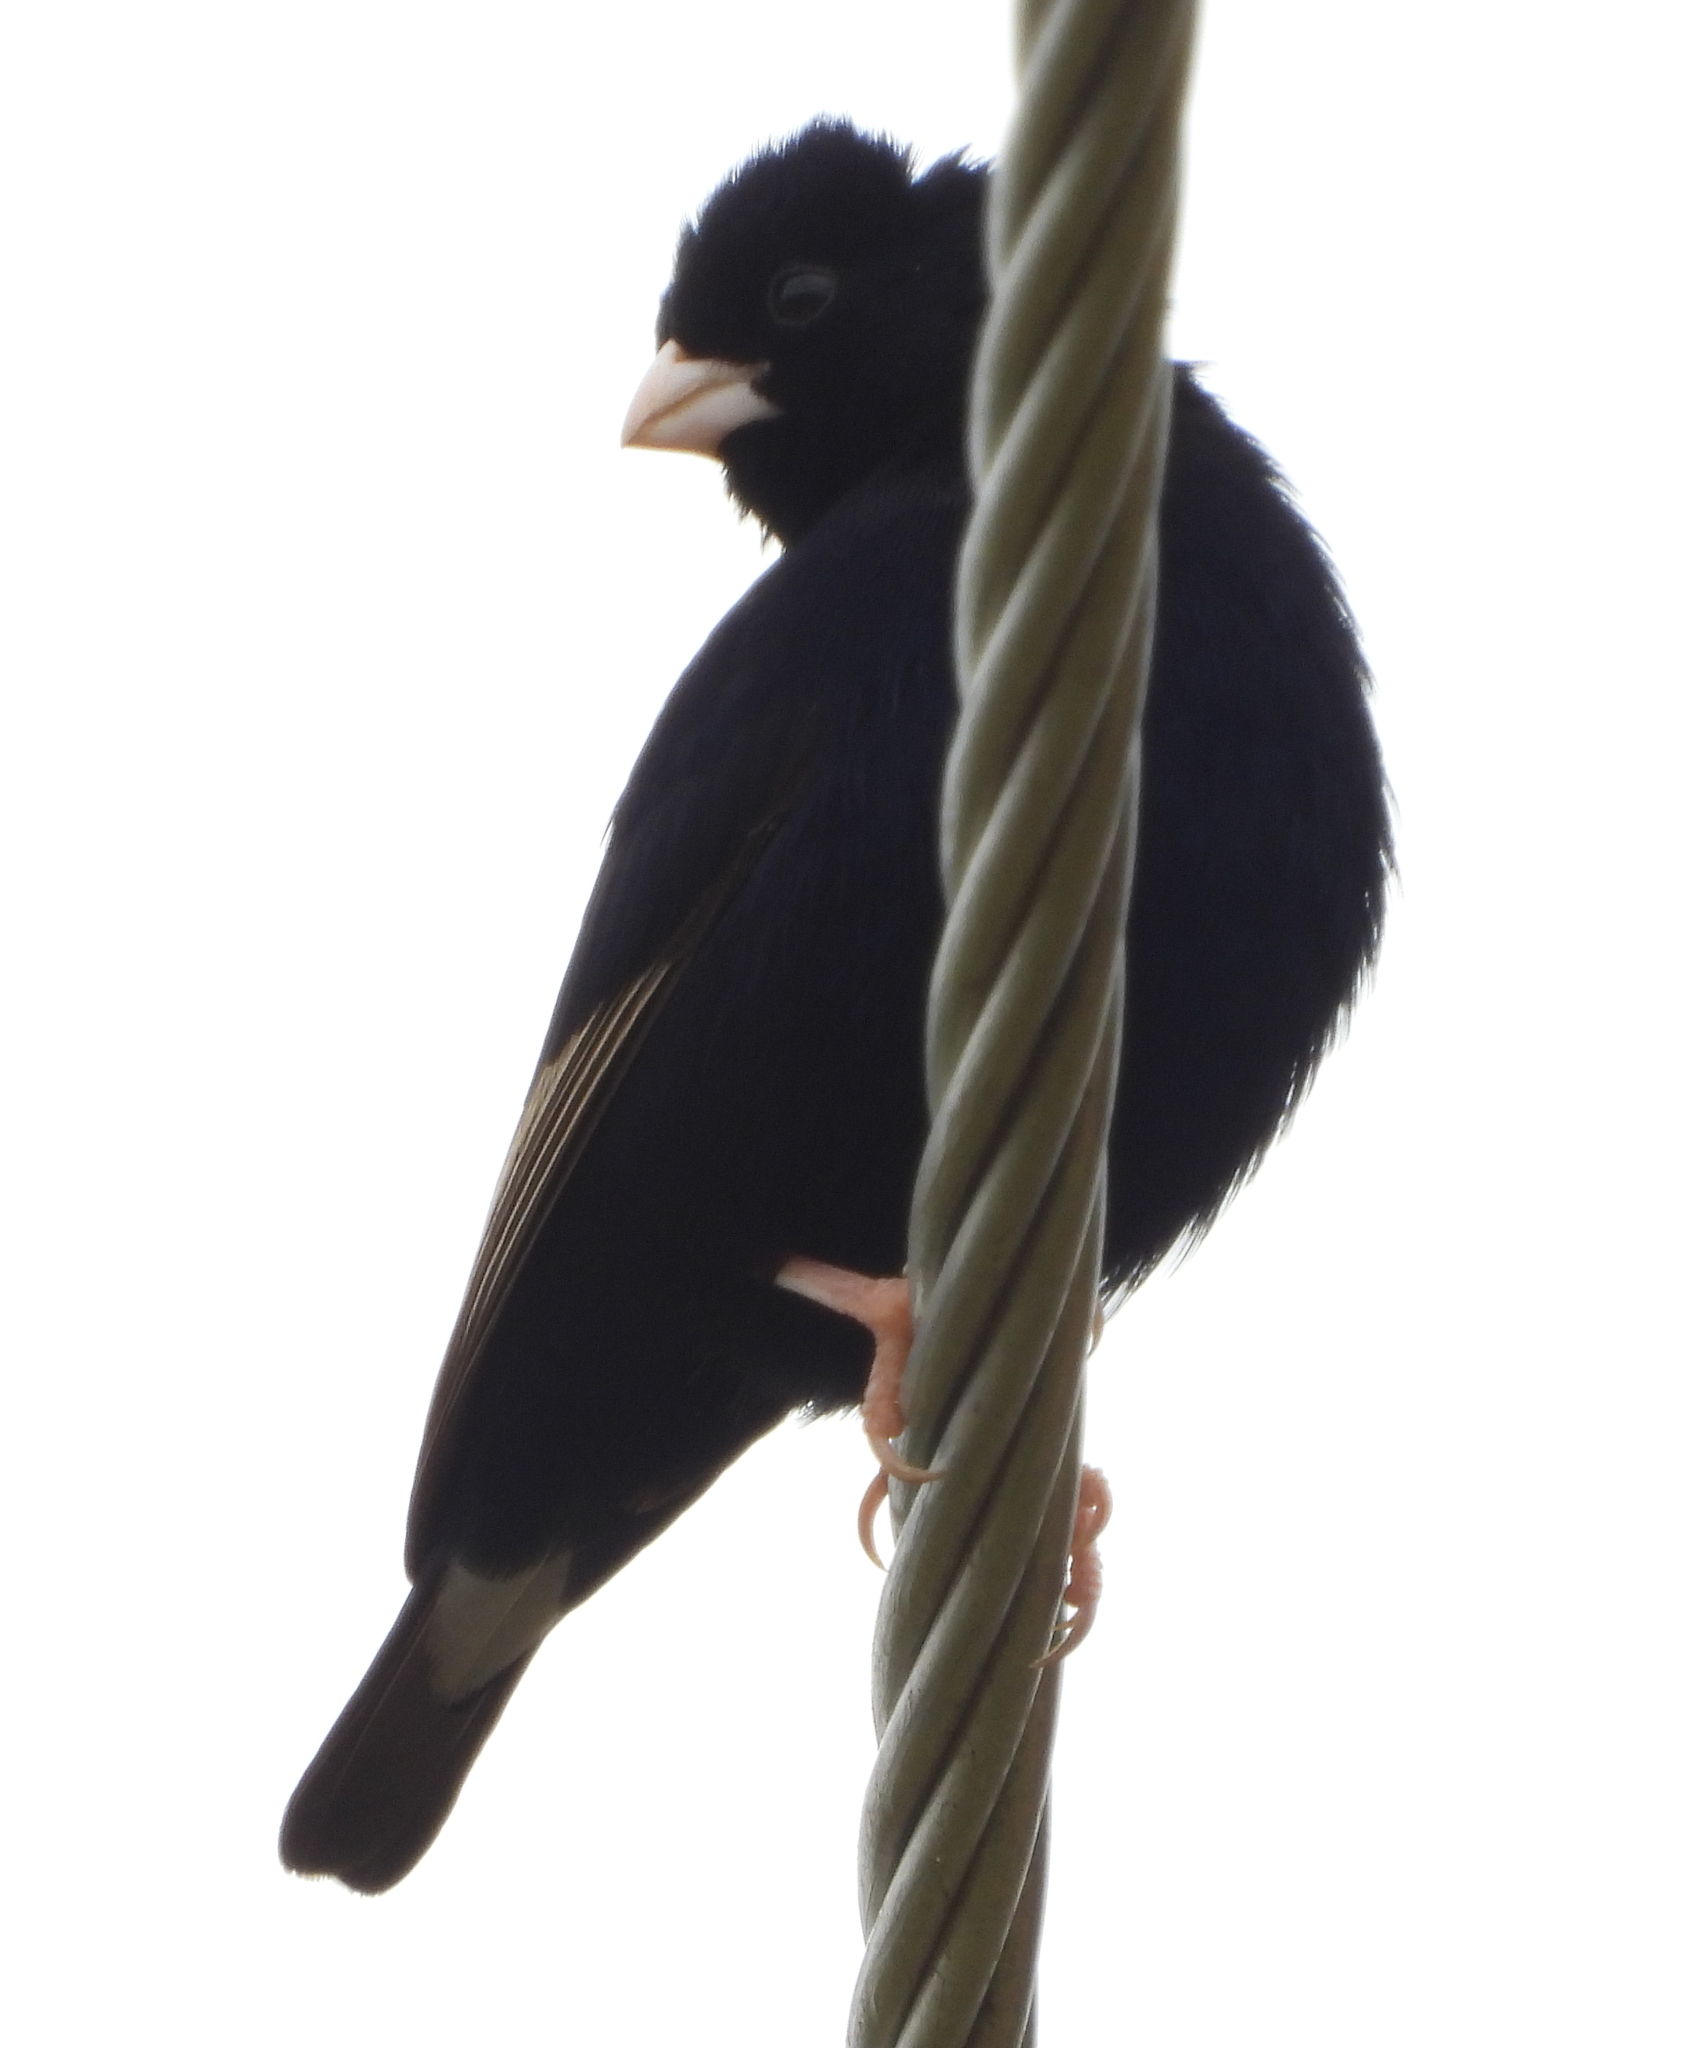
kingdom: Animalia
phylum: Chordata
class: Aves
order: Passeriformes
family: Viduidae
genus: Vidua
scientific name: Vidua purpurascens
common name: Purple indigobird
